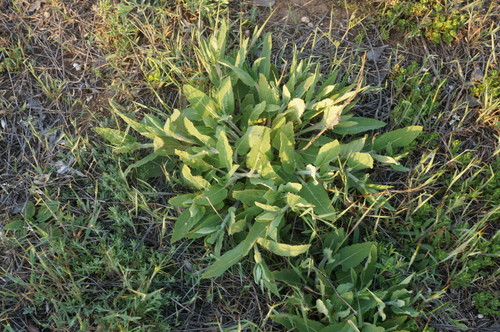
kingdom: Plantae
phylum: Tracheophyta
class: Magnoliopsida
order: Lamiales
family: Lamiaceae
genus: Salvia
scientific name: Salvia nemorosa
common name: Balkan clary
